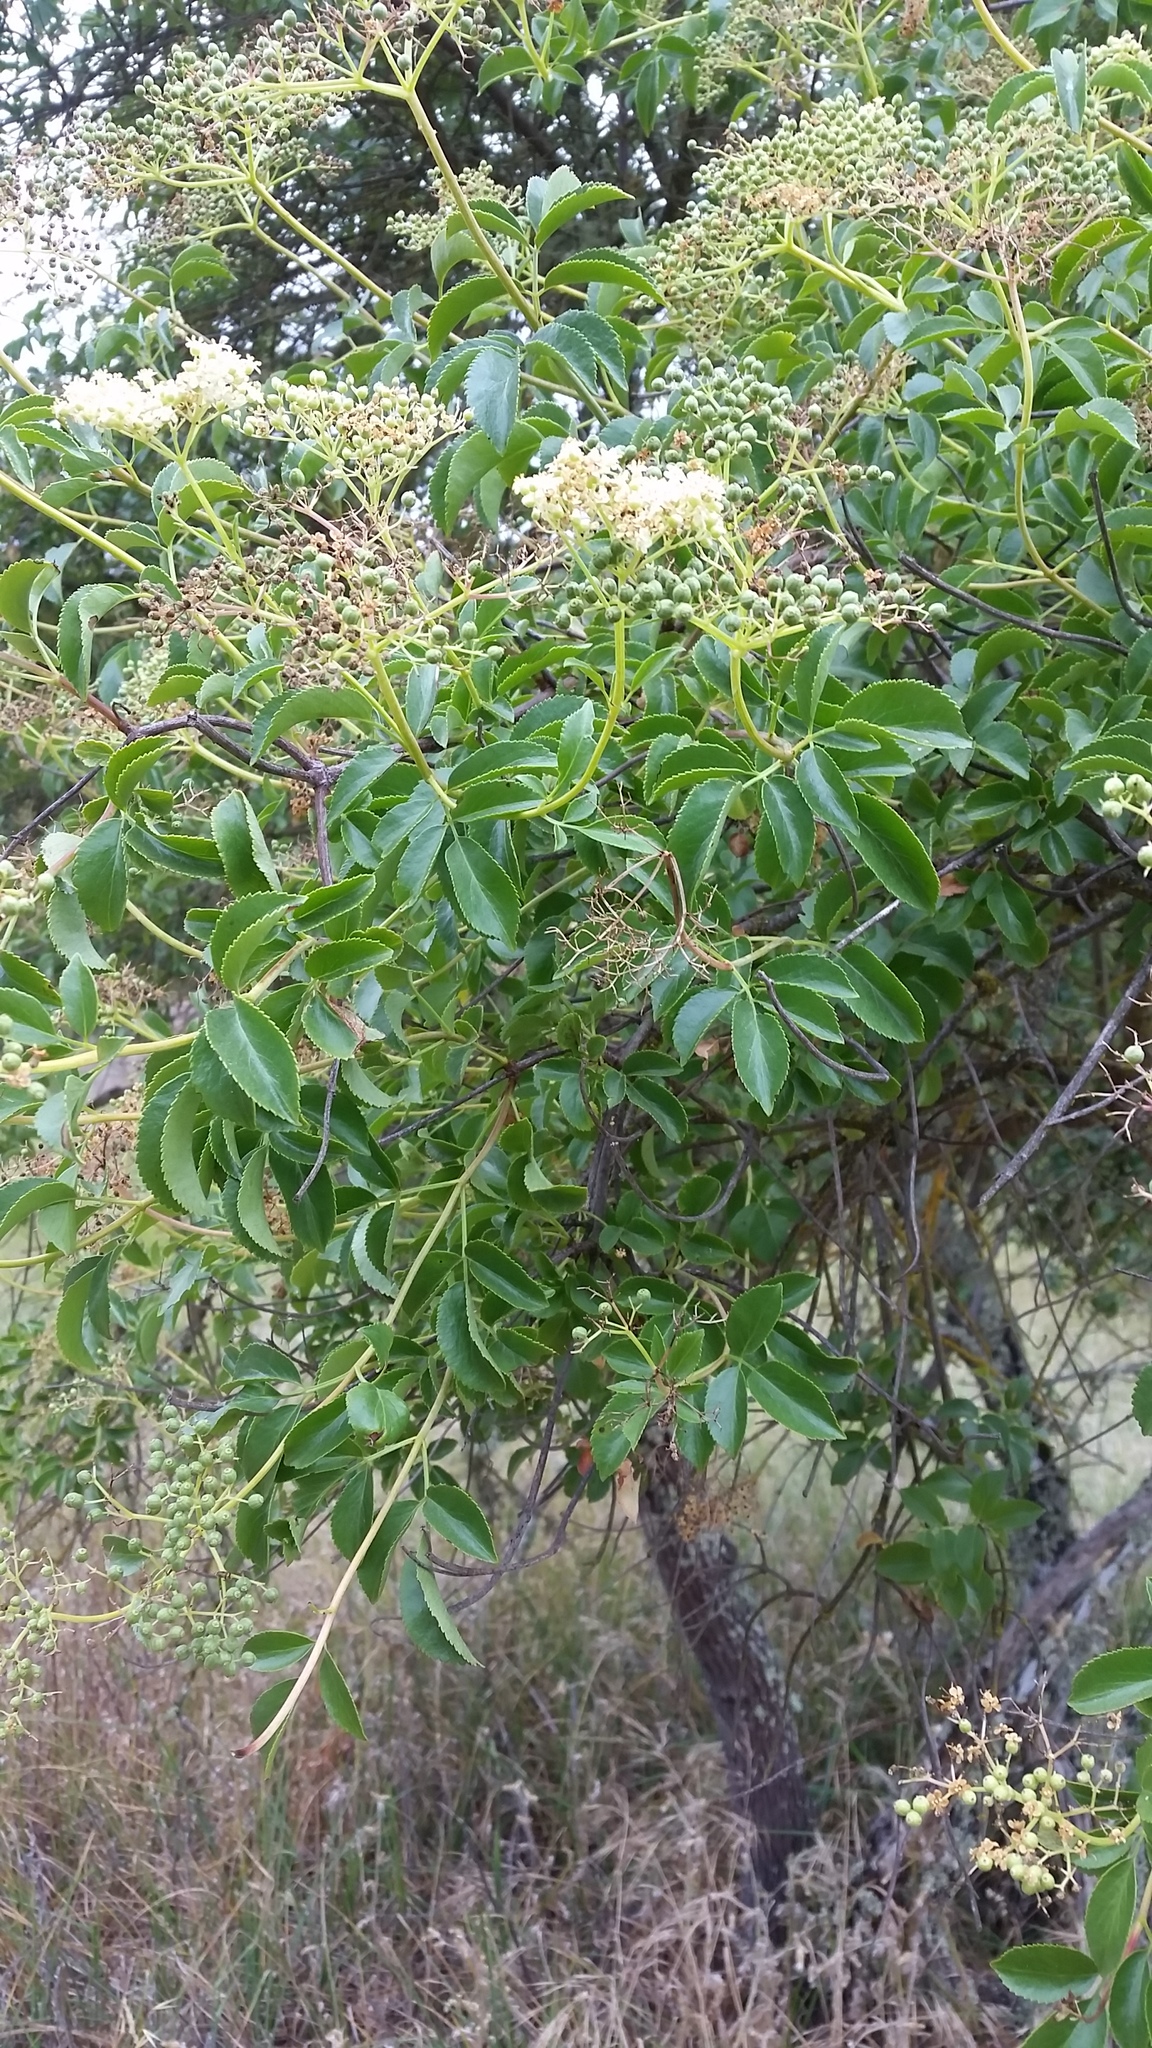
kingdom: Plantae
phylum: Tracheophyta
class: Magnoliopsida
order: Dipsacales
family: Viburnaceae
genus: Sambucus
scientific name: Sambucus cerulea
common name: Blue elder
